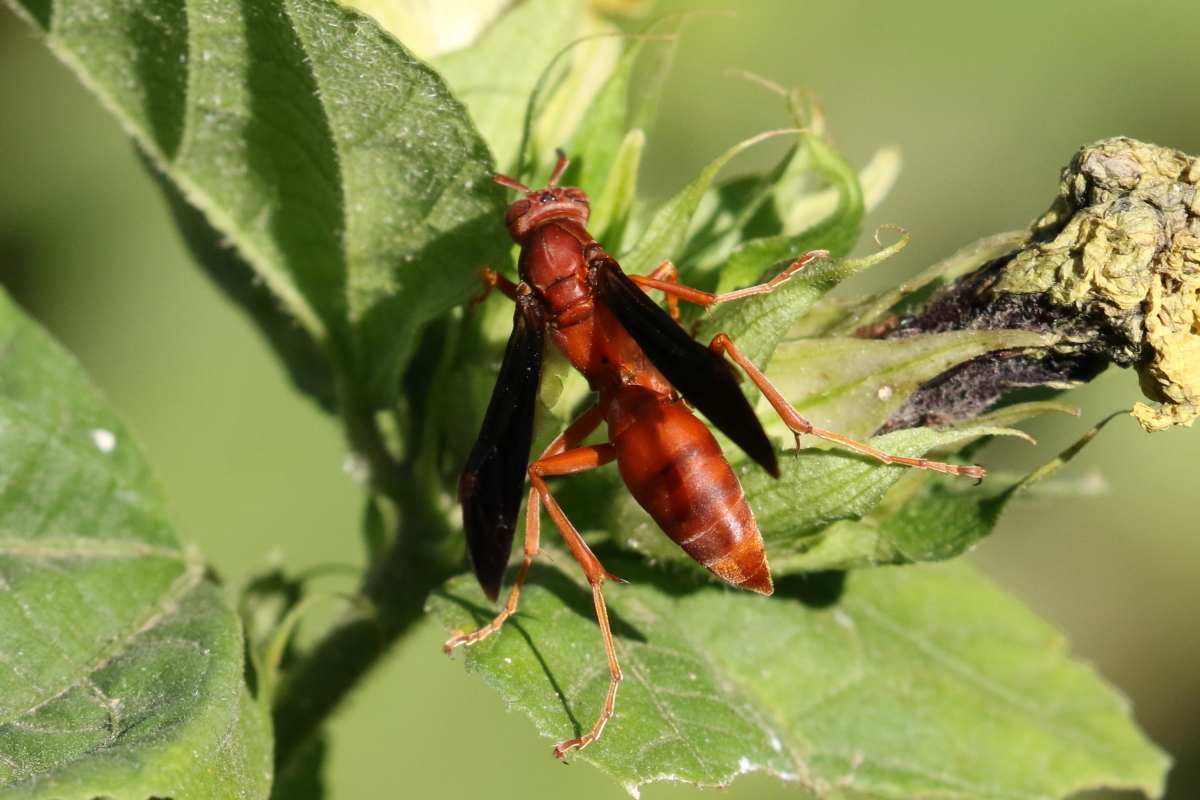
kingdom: Animalia
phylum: Arthropoda
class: Insecta
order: Hymenoptera
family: Vespidae
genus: Fuscopolistes
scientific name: Fuscopolistes
